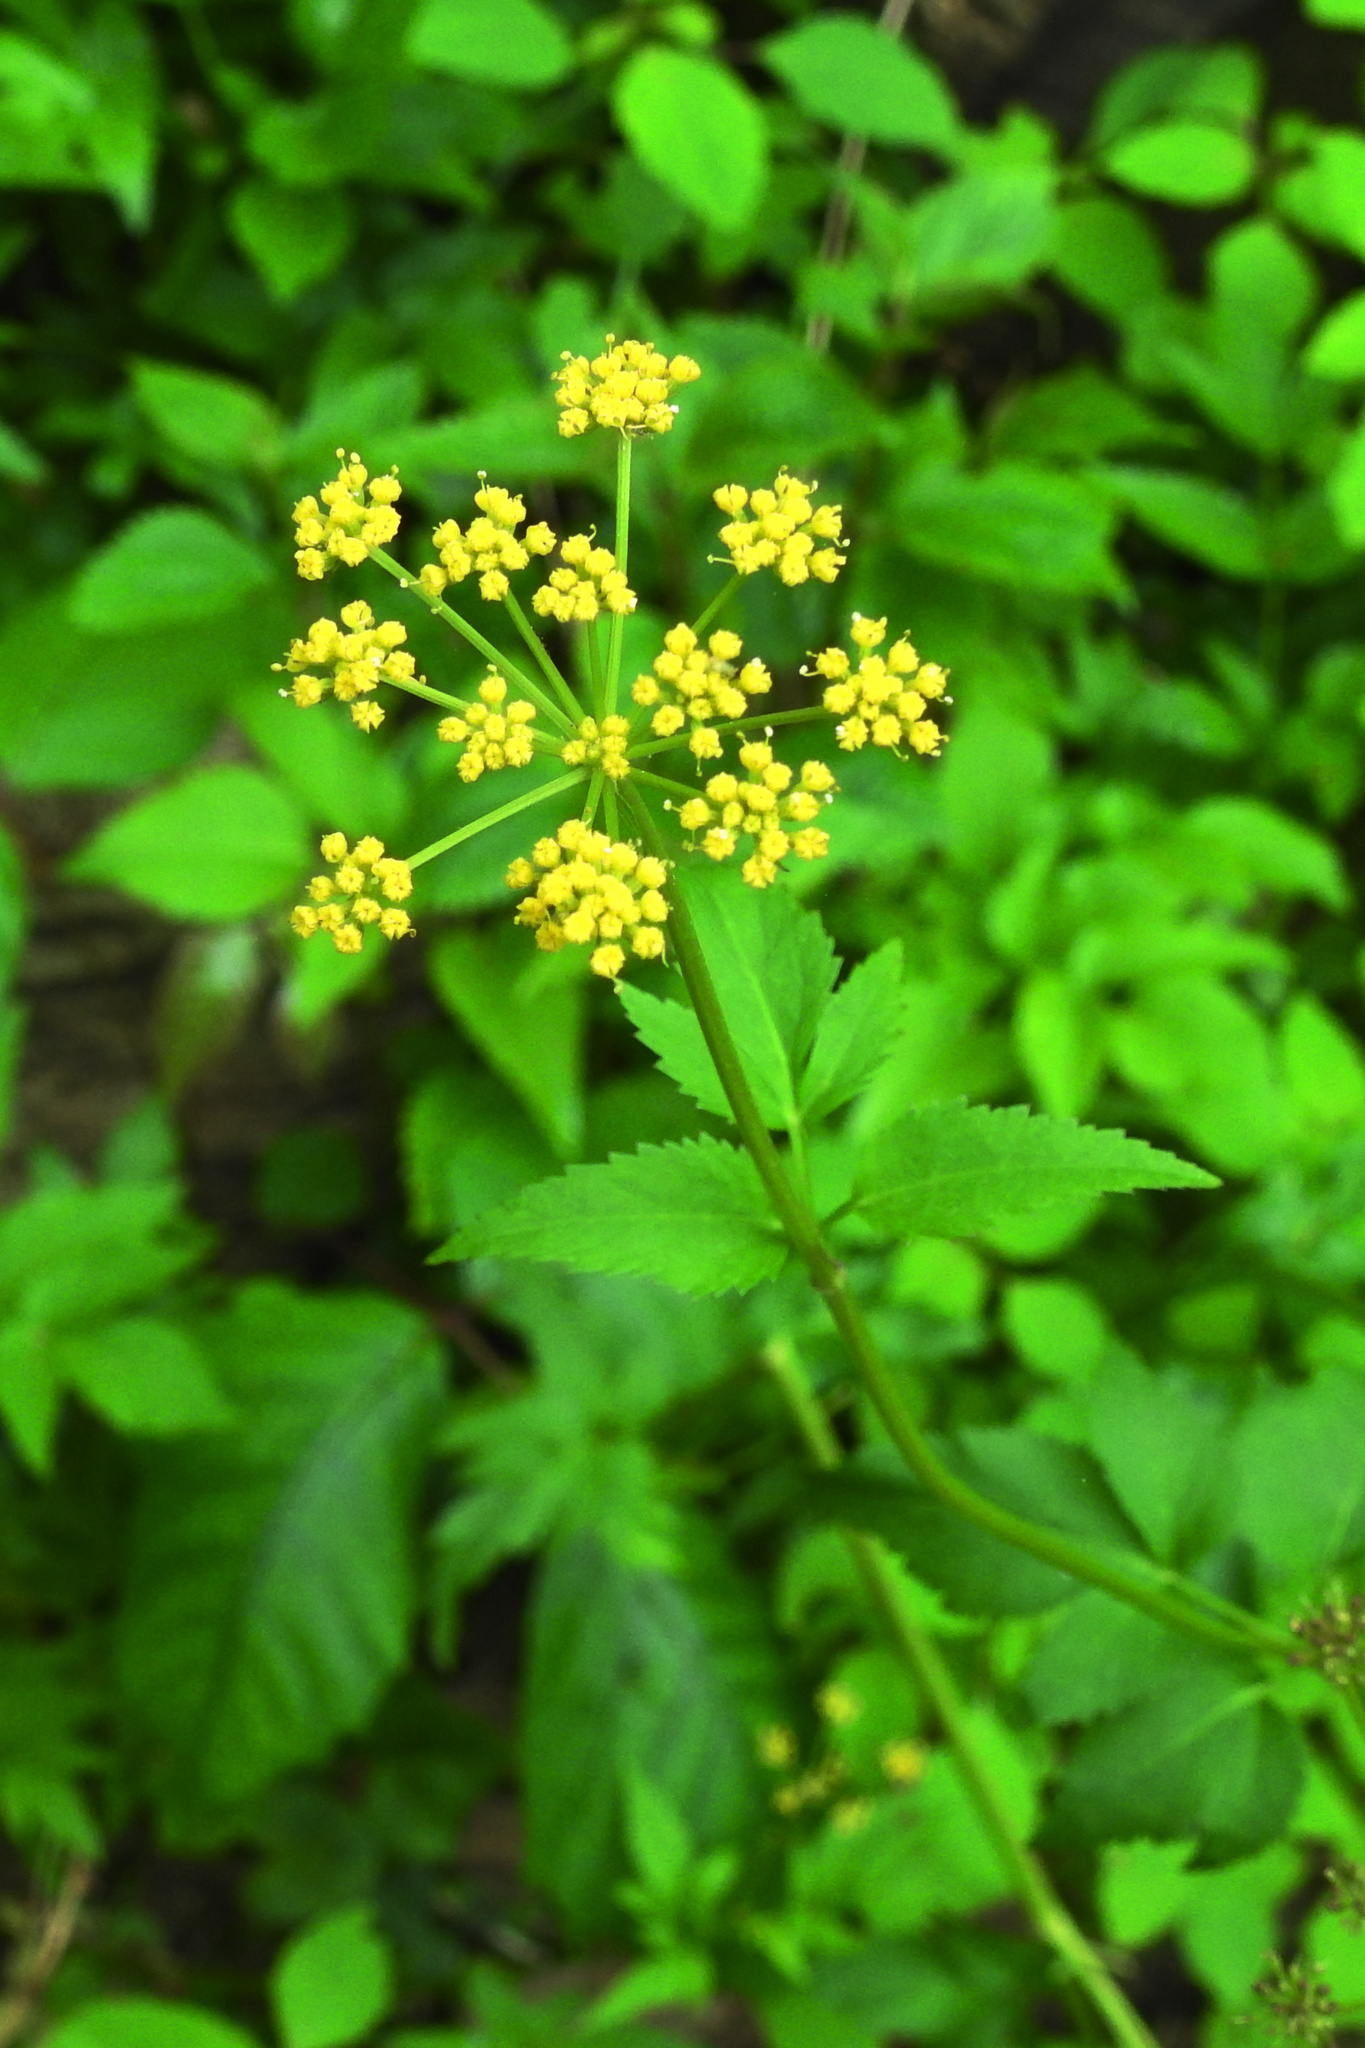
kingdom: Plantae
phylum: Tracheophyta
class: Magnoliopsida
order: Apiales
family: Apiaceae
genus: Zizia
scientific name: Zizia aurea
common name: Golden alexanders
